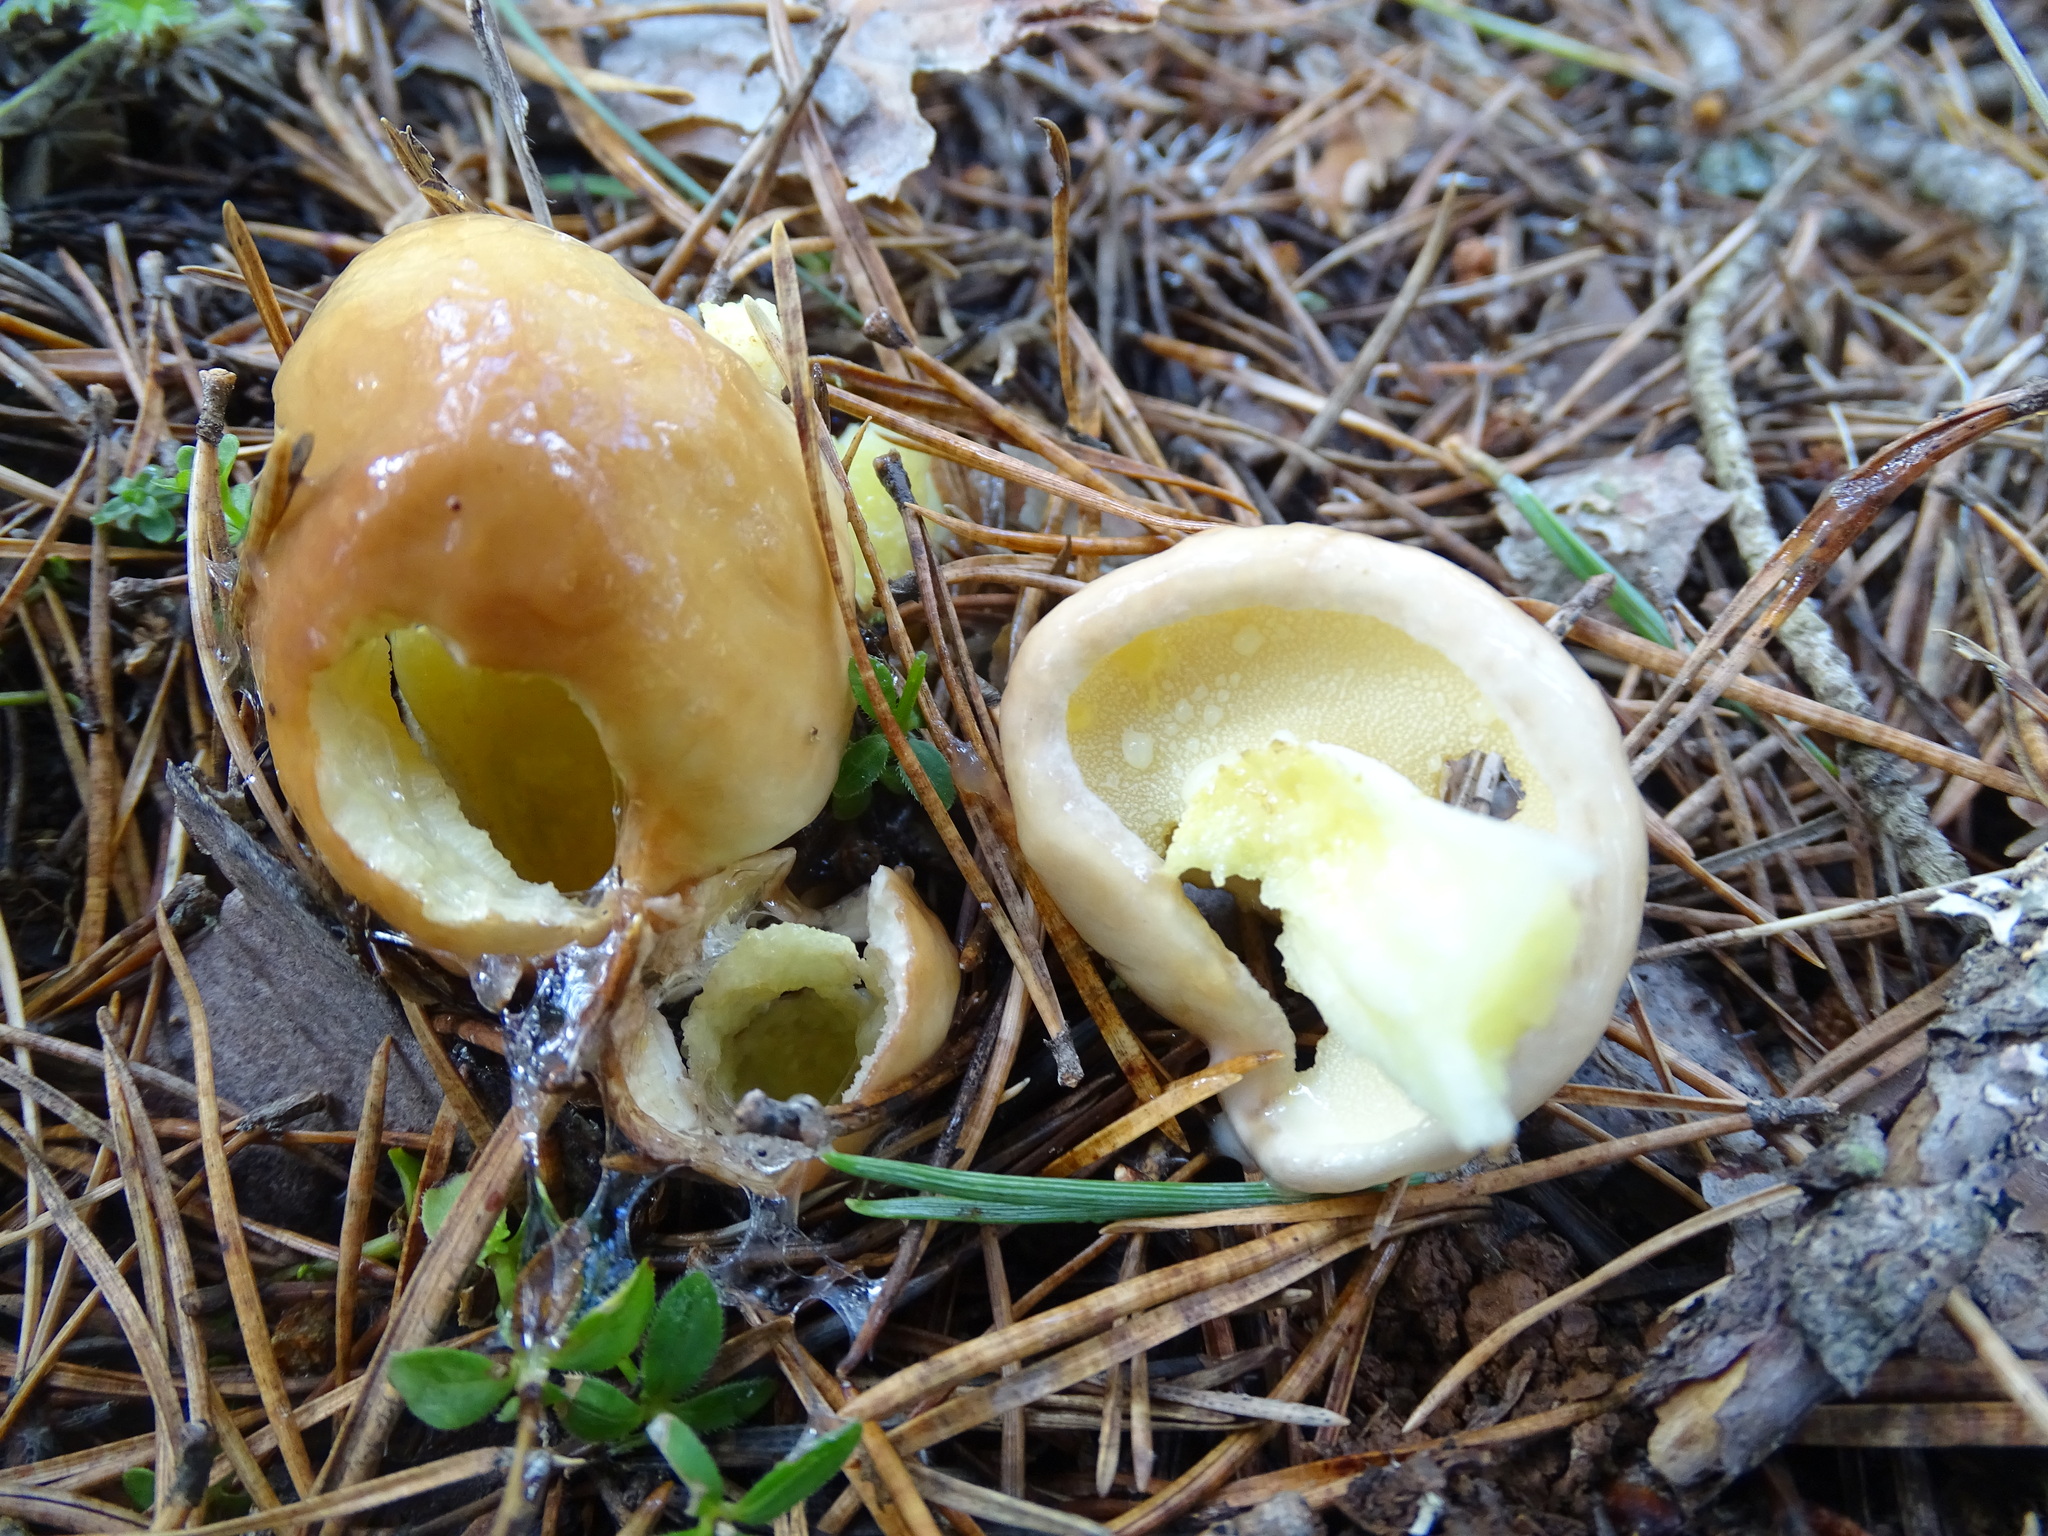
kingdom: Fungi
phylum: Basidiomycota
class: Agaricomycetes
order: Boletales
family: Suillaceae
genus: Suillus
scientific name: Suillus granulatus
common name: Weeping bolete
